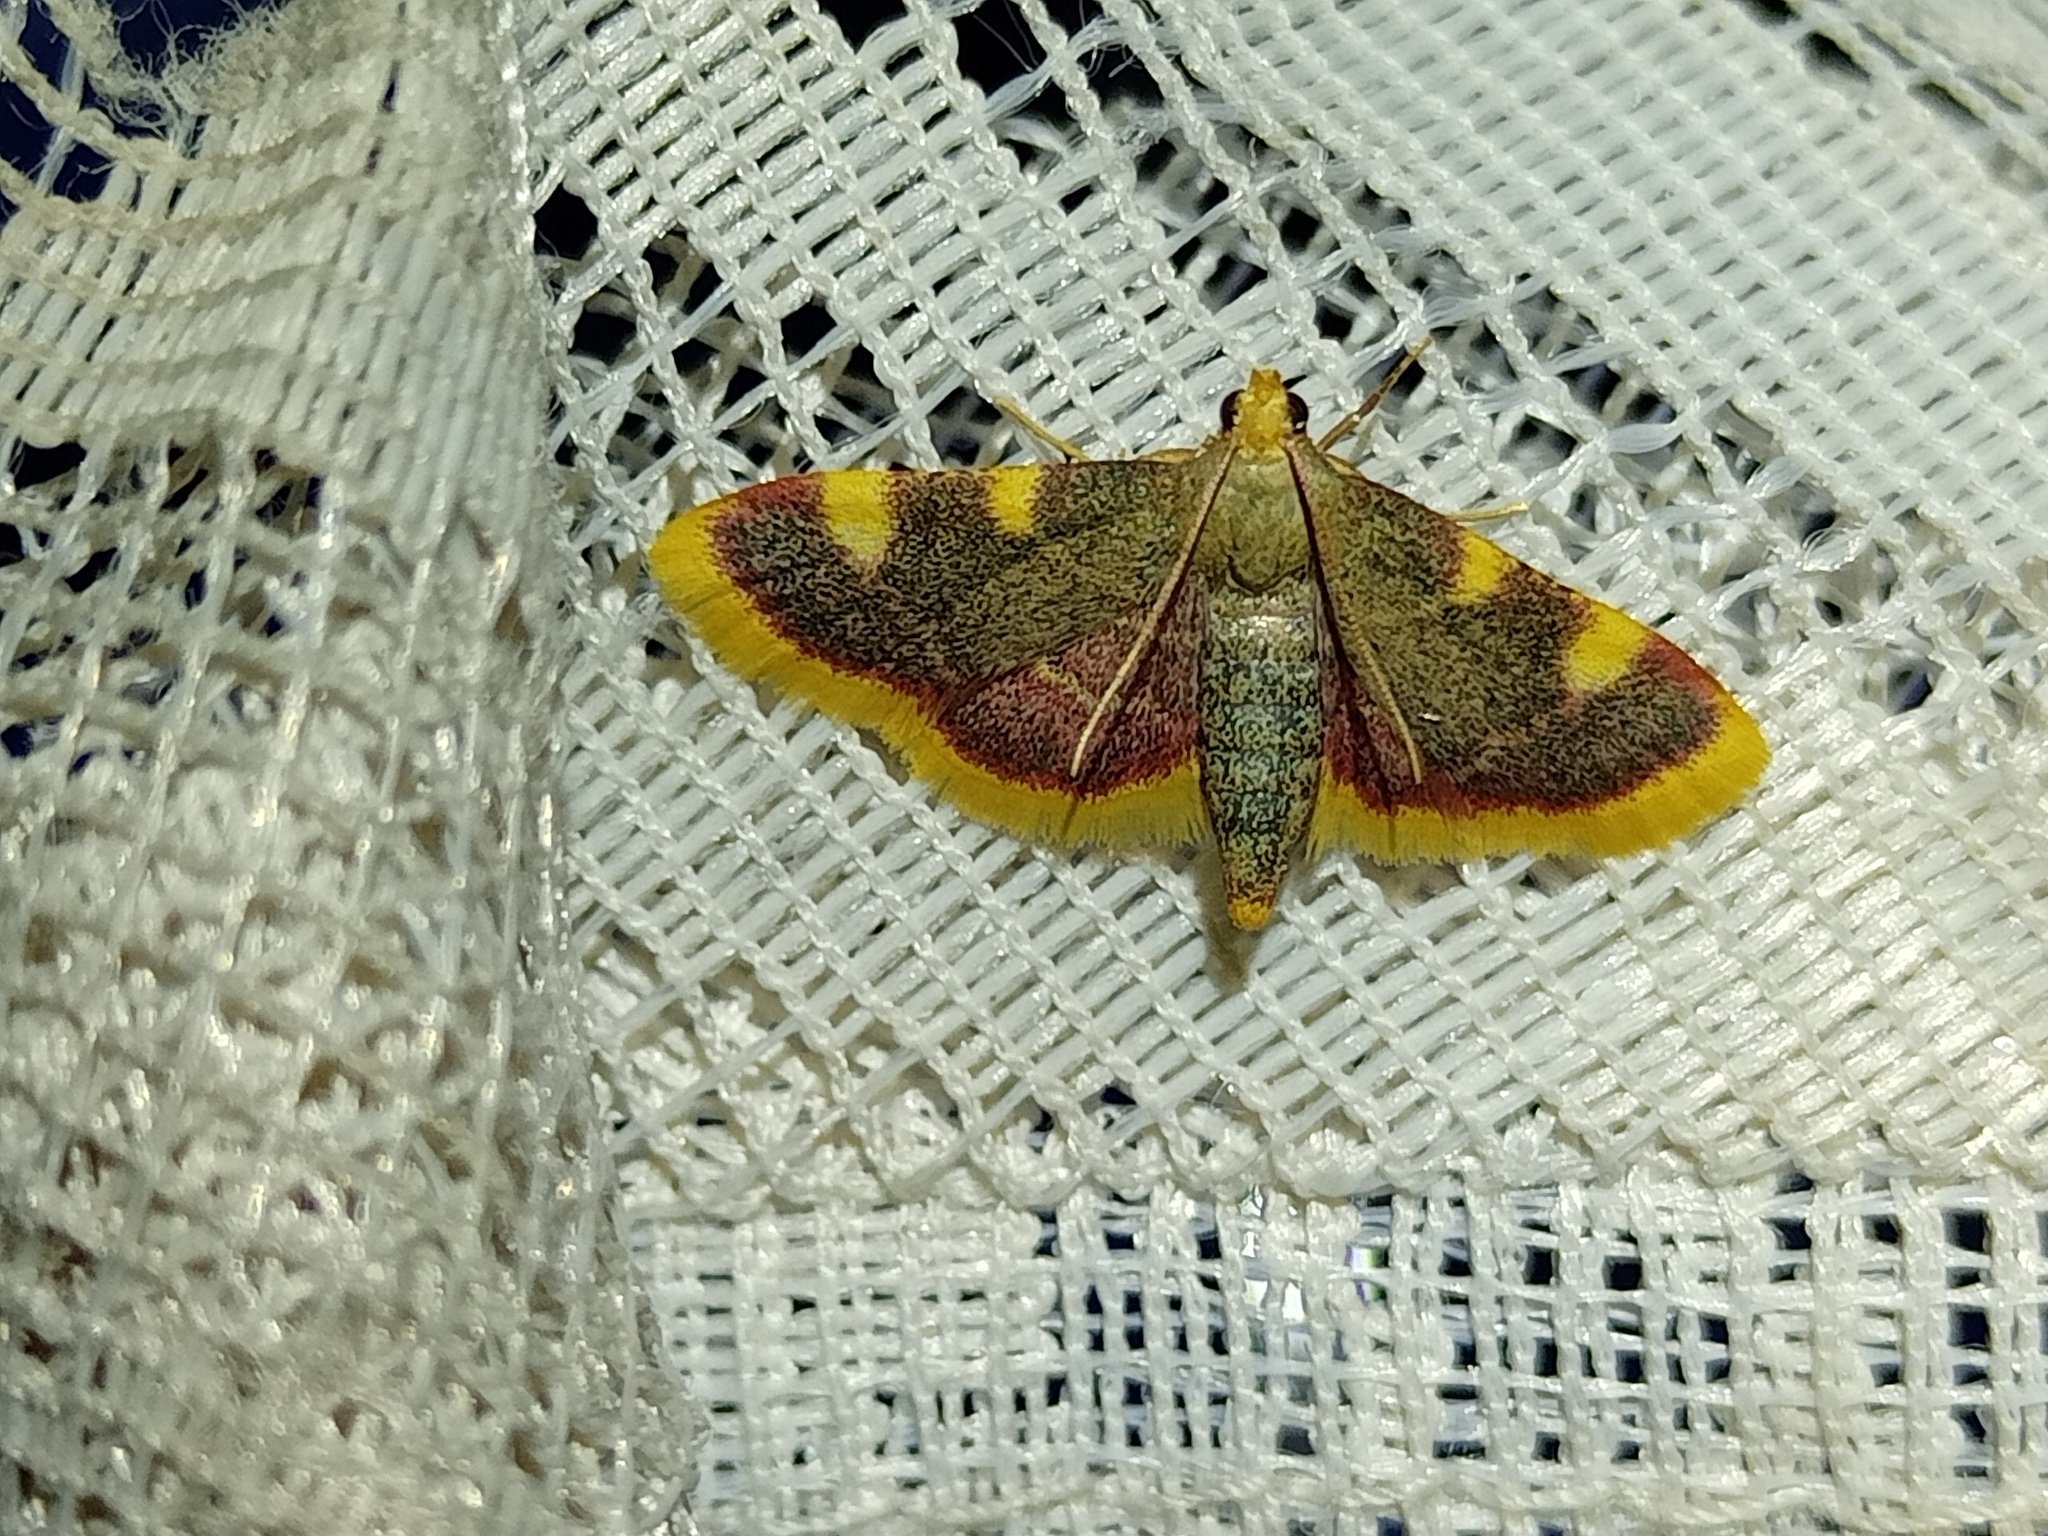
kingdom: Animalia
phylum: Arthropoda
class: Insecta
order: Lepidoptera
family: Pyralidae
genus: Hypsopygia
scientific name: Hypsopygia costalis
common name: Gold triangle
